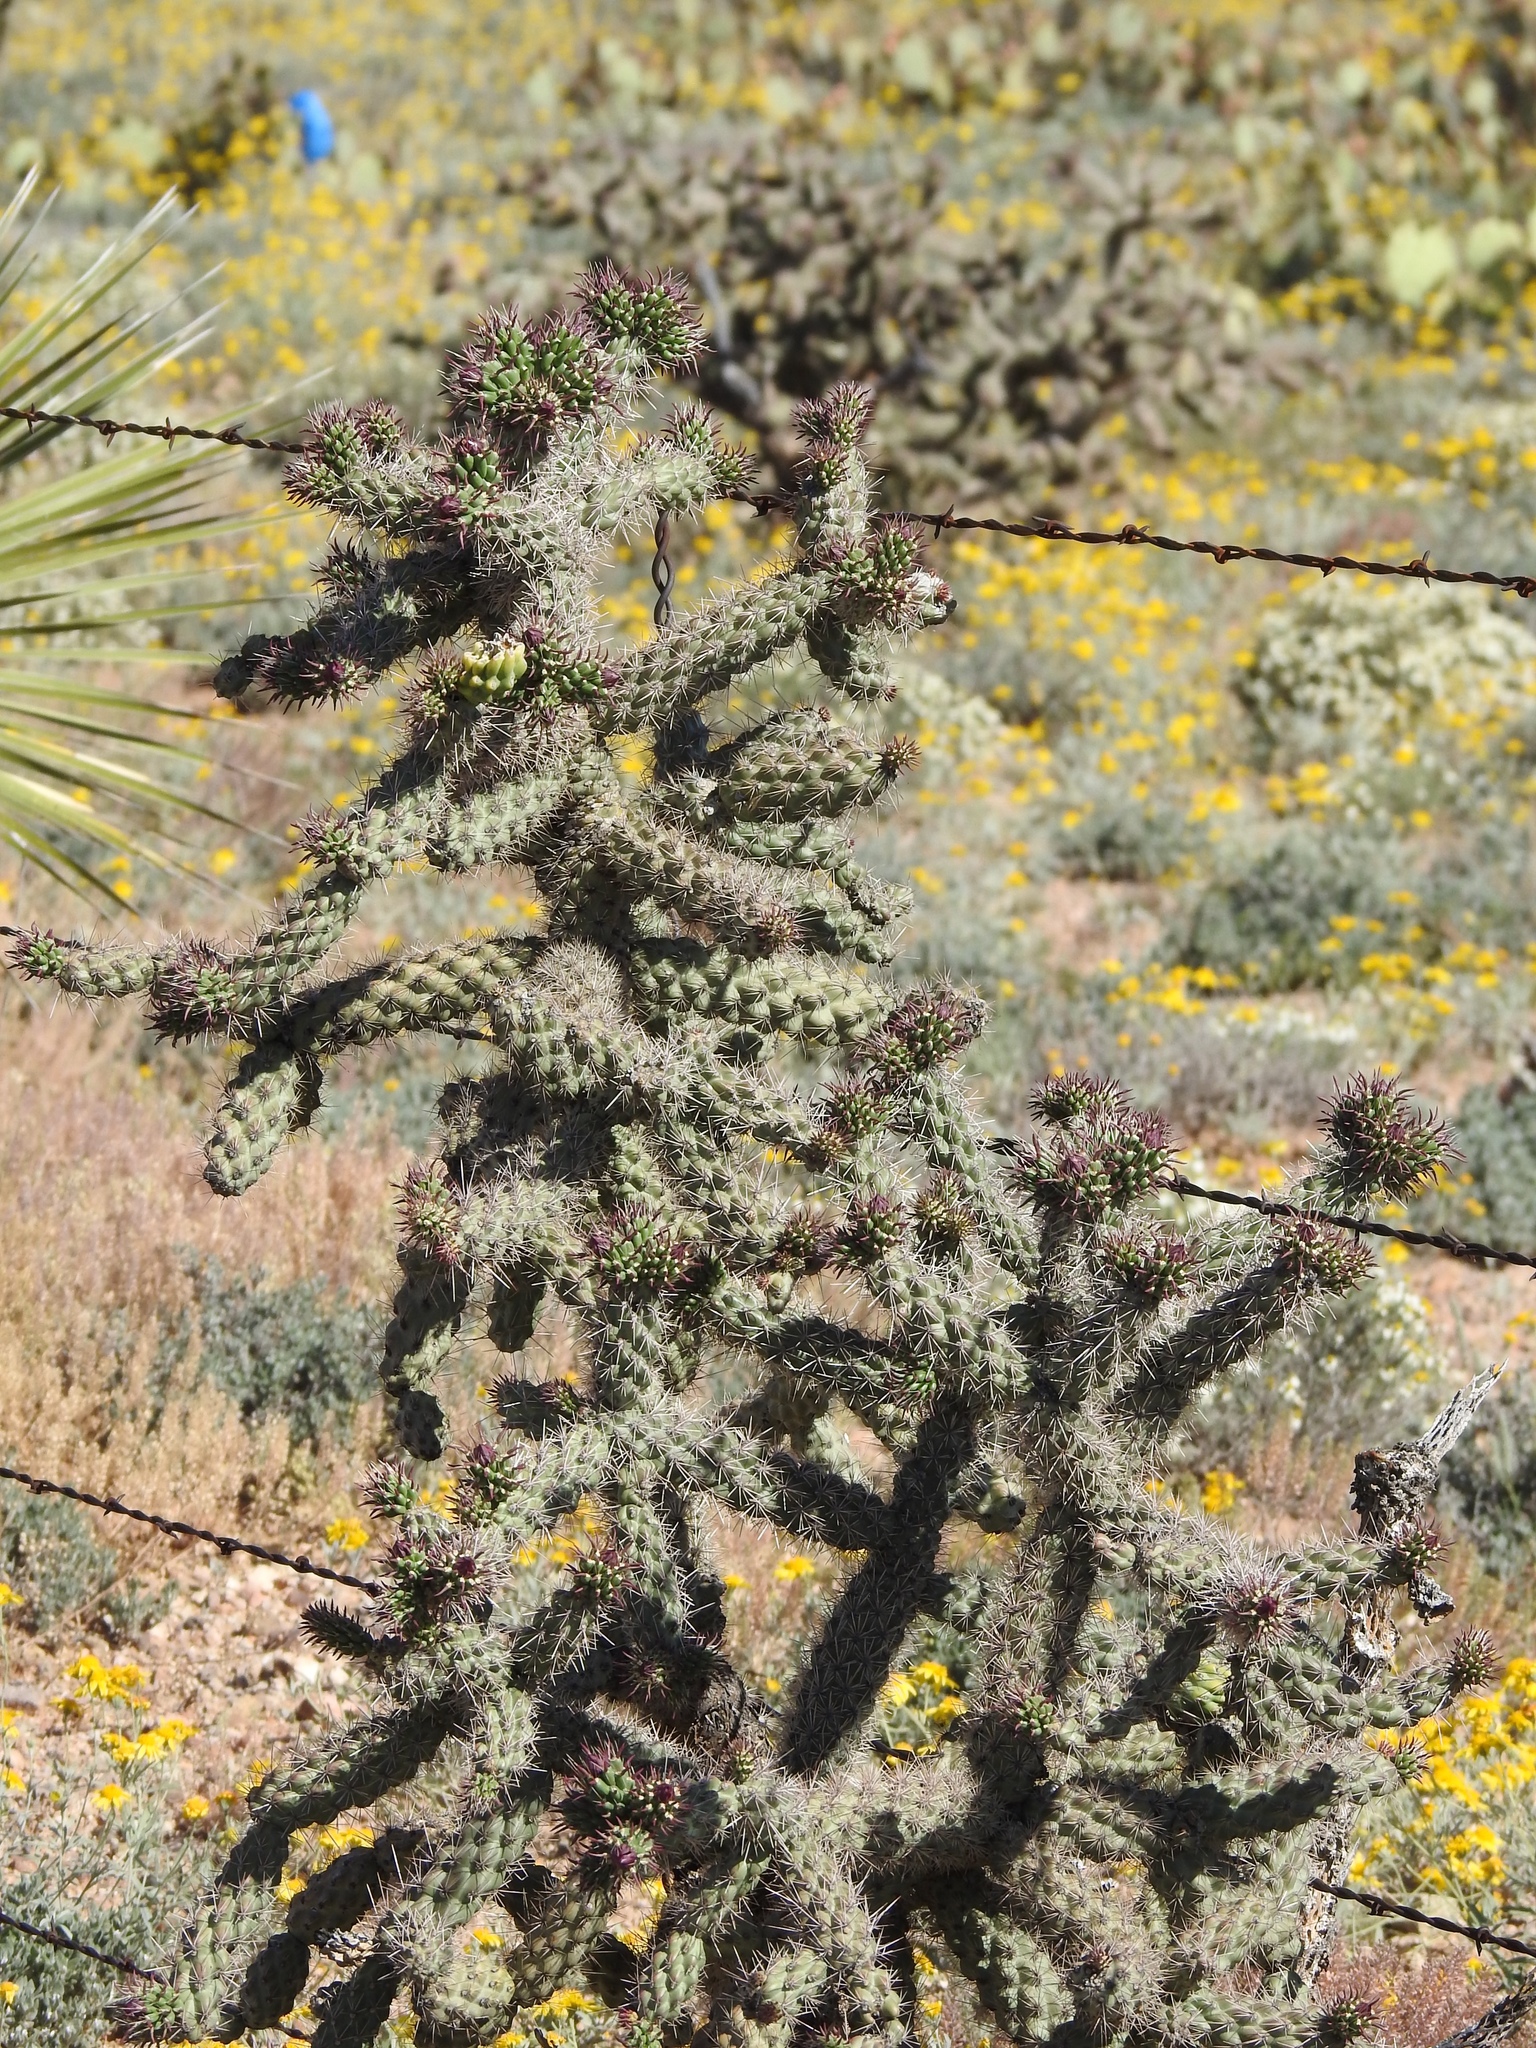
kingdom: Plantae
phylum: Tracheophyta
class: Magnoliopsida
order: Caryophyllales
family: Cactaceae
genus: Cylindropuntia
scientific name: Cylindropuntia imbricata
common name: Candelabrum cactus
